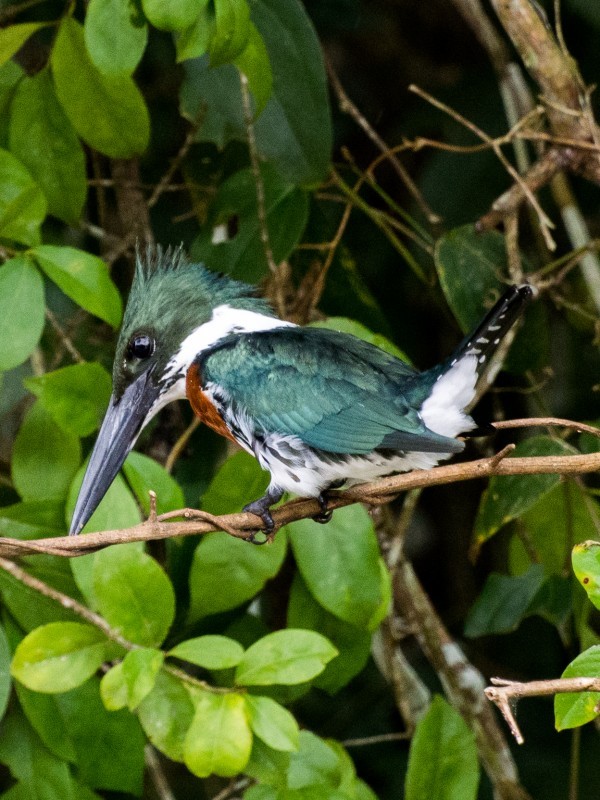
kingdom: Animalia
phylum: Chordata
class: Aves
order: Coraciiformes
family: Alcedinidae
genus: Chloroceryle
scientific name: Chloroceryle amazona
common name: Amazon kingfisher
